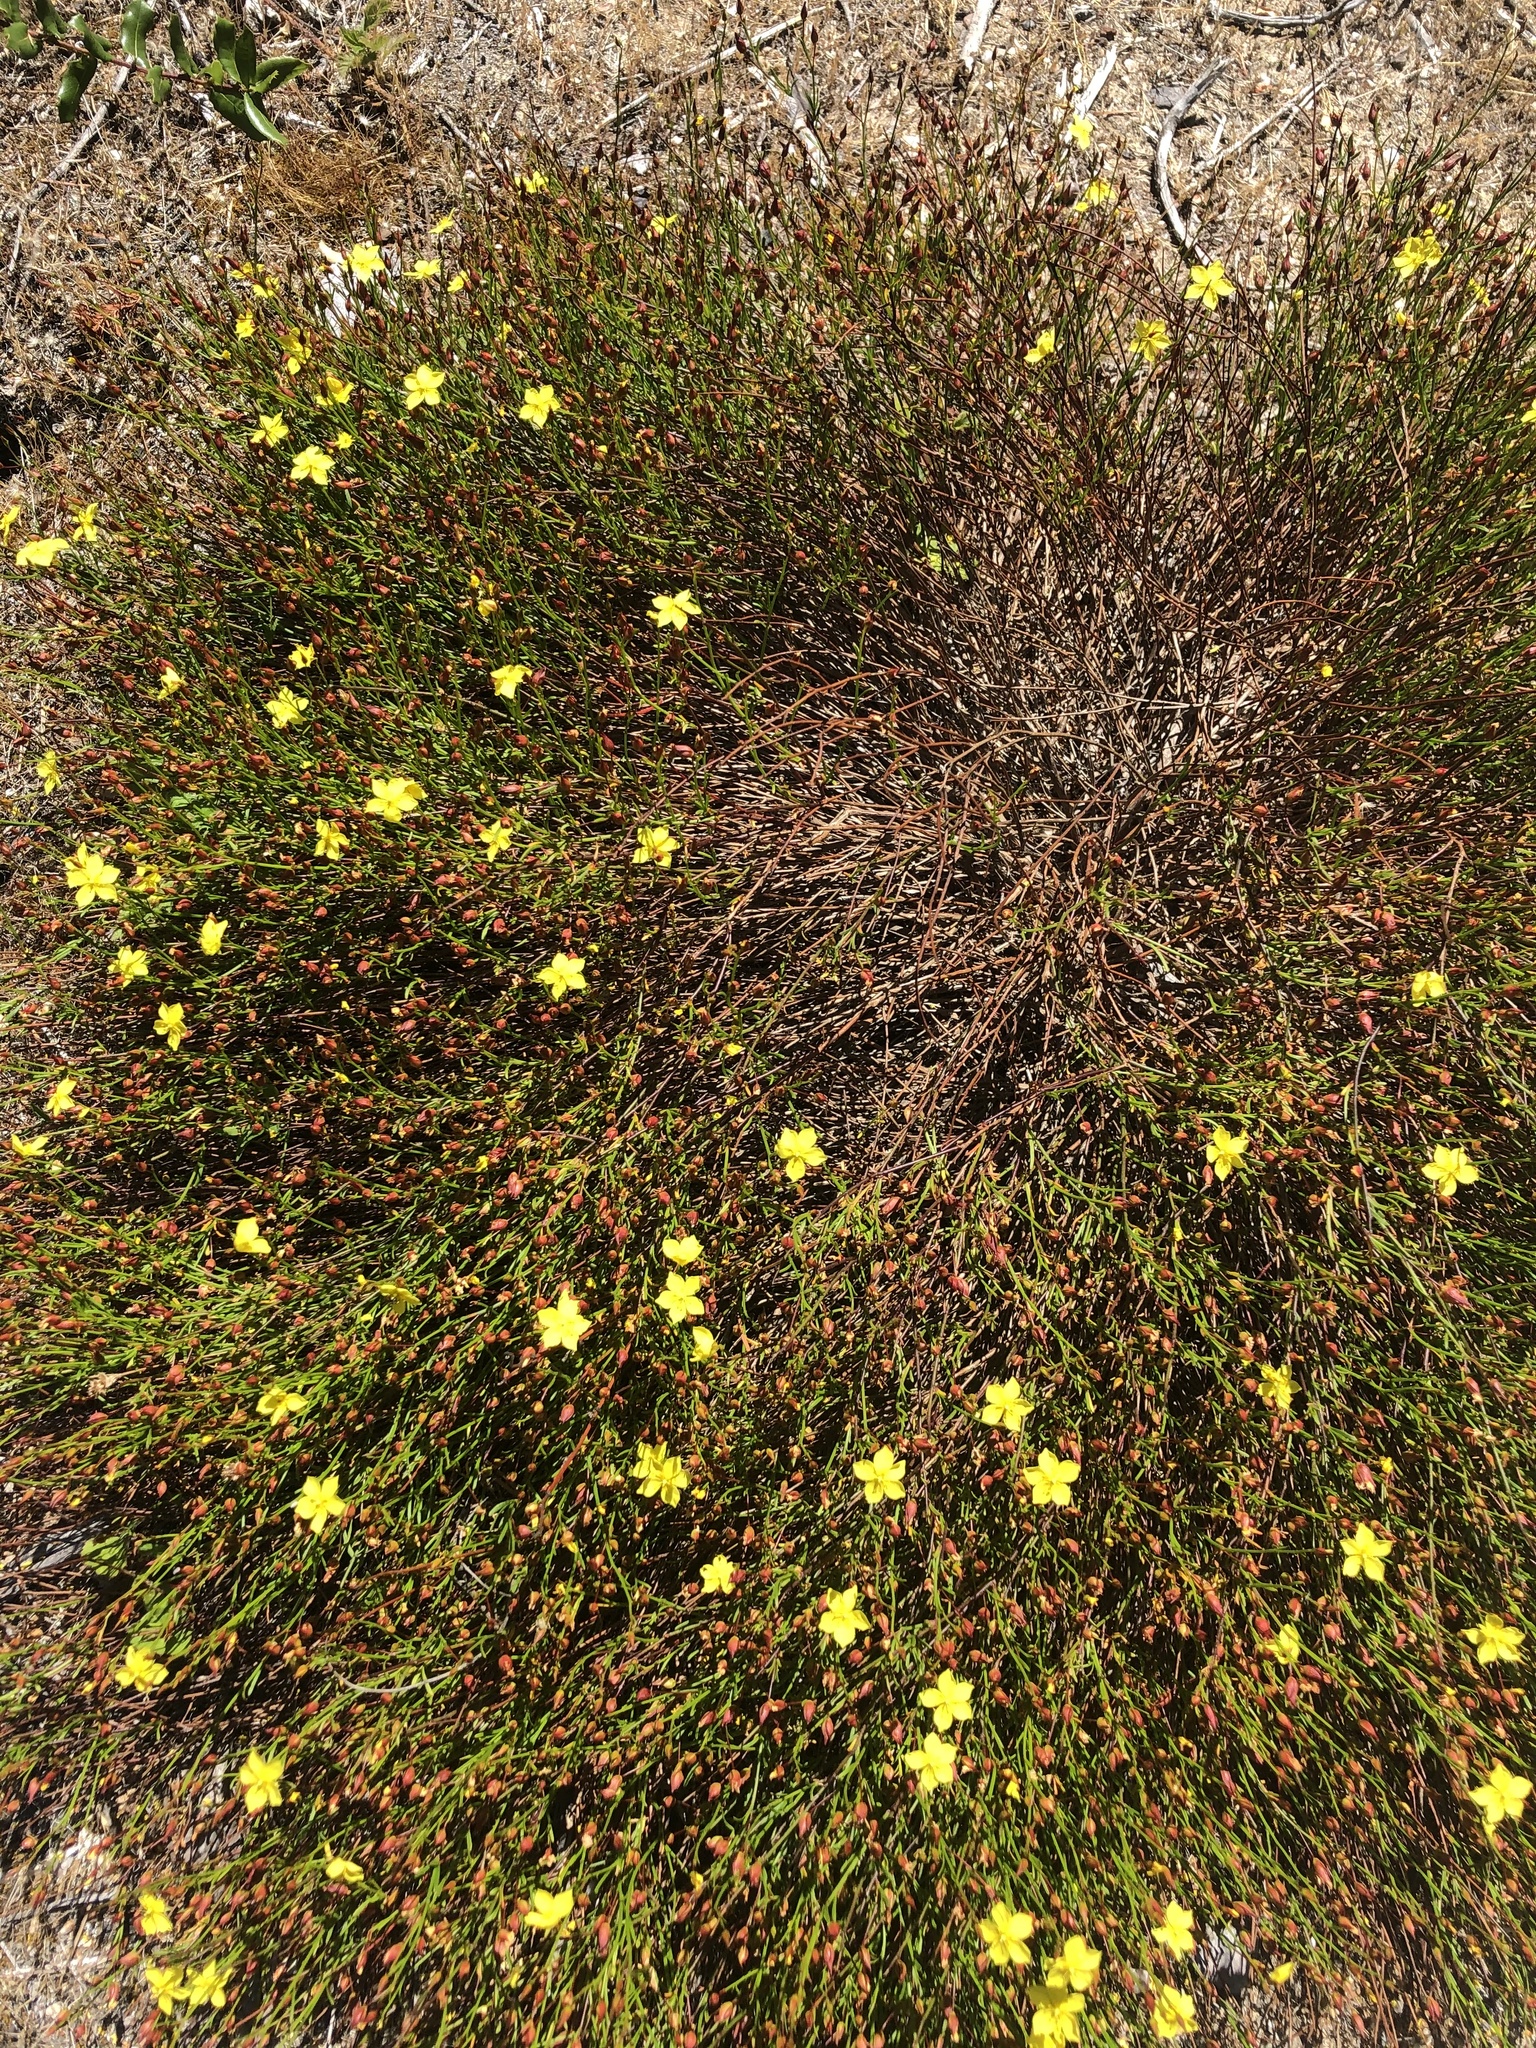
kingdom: Plantae
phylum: Tracheophyta
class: Magnoliopsida
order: Malvales
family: Cistaceae
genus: Crocanthemum
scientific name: Crocanthemum scoparium
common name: Broom-rose
